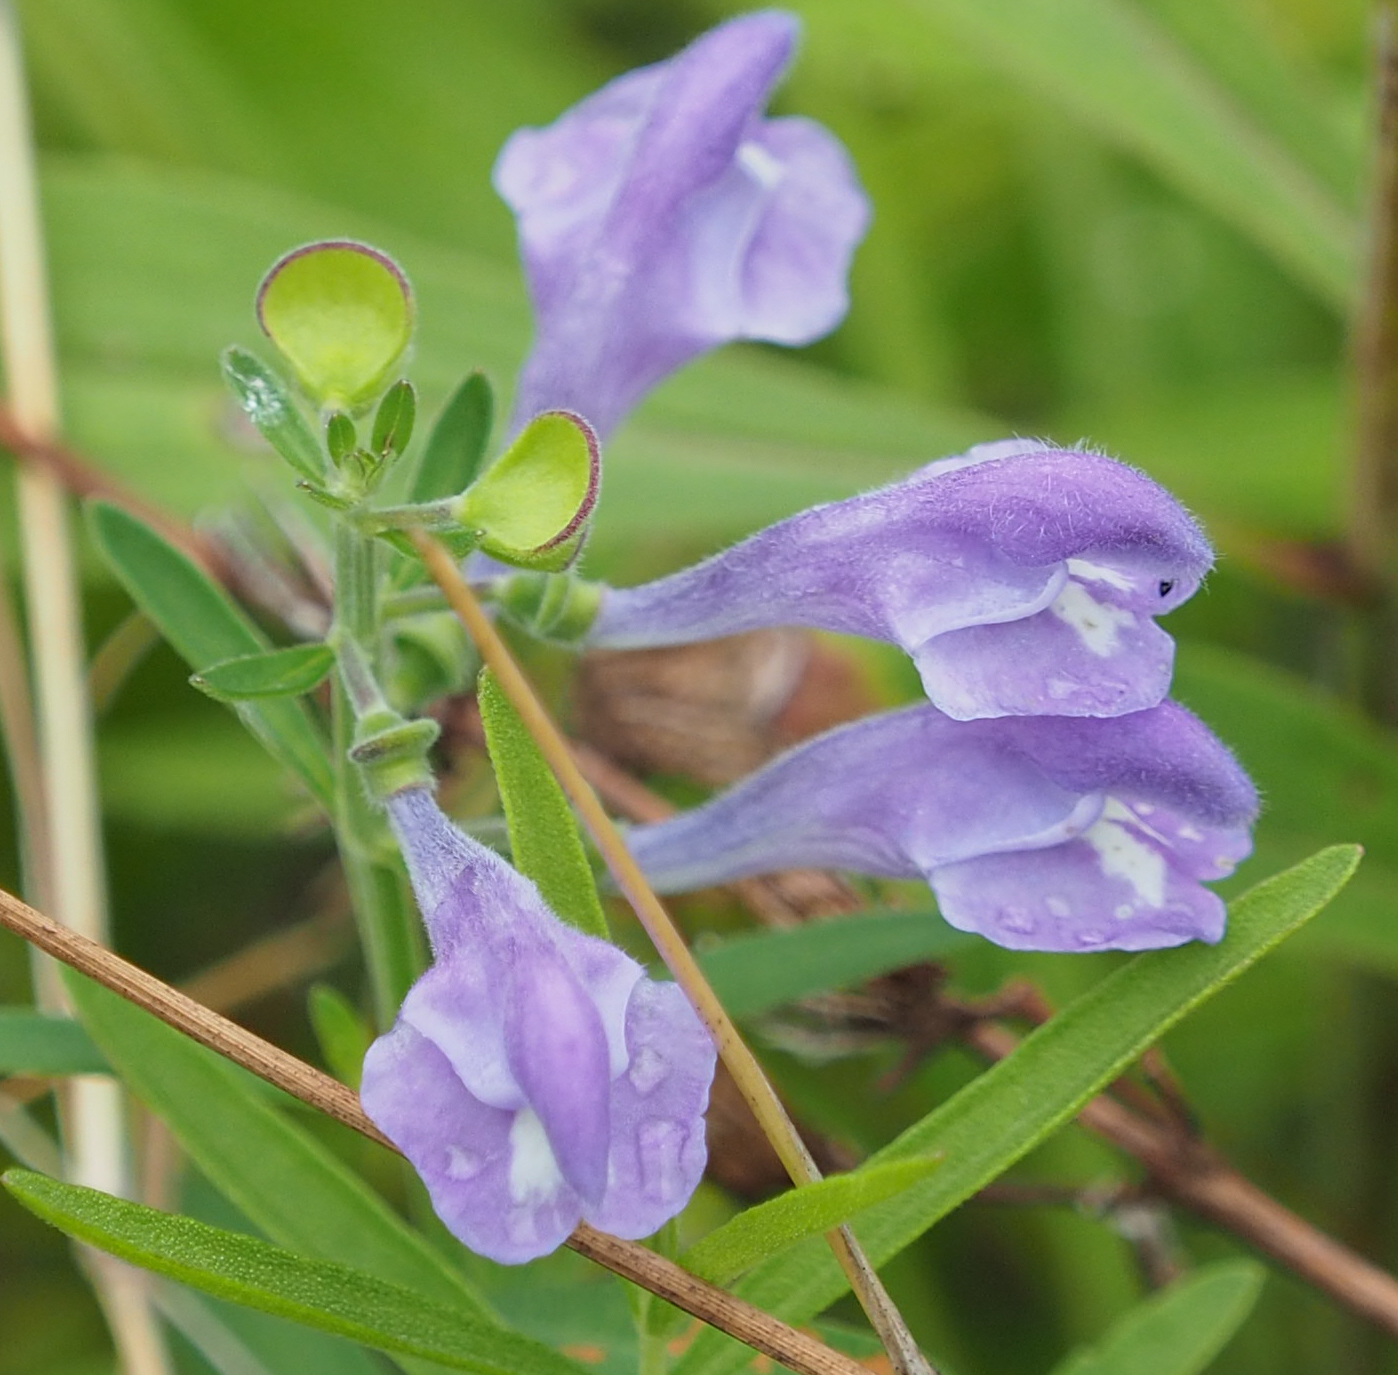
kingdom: Plantae
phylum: Tracheophyta
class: Magnoliopsida
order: Lamiales
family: Lamiaceae
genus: Scutellaria
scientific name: Scutellaria integrifolia
